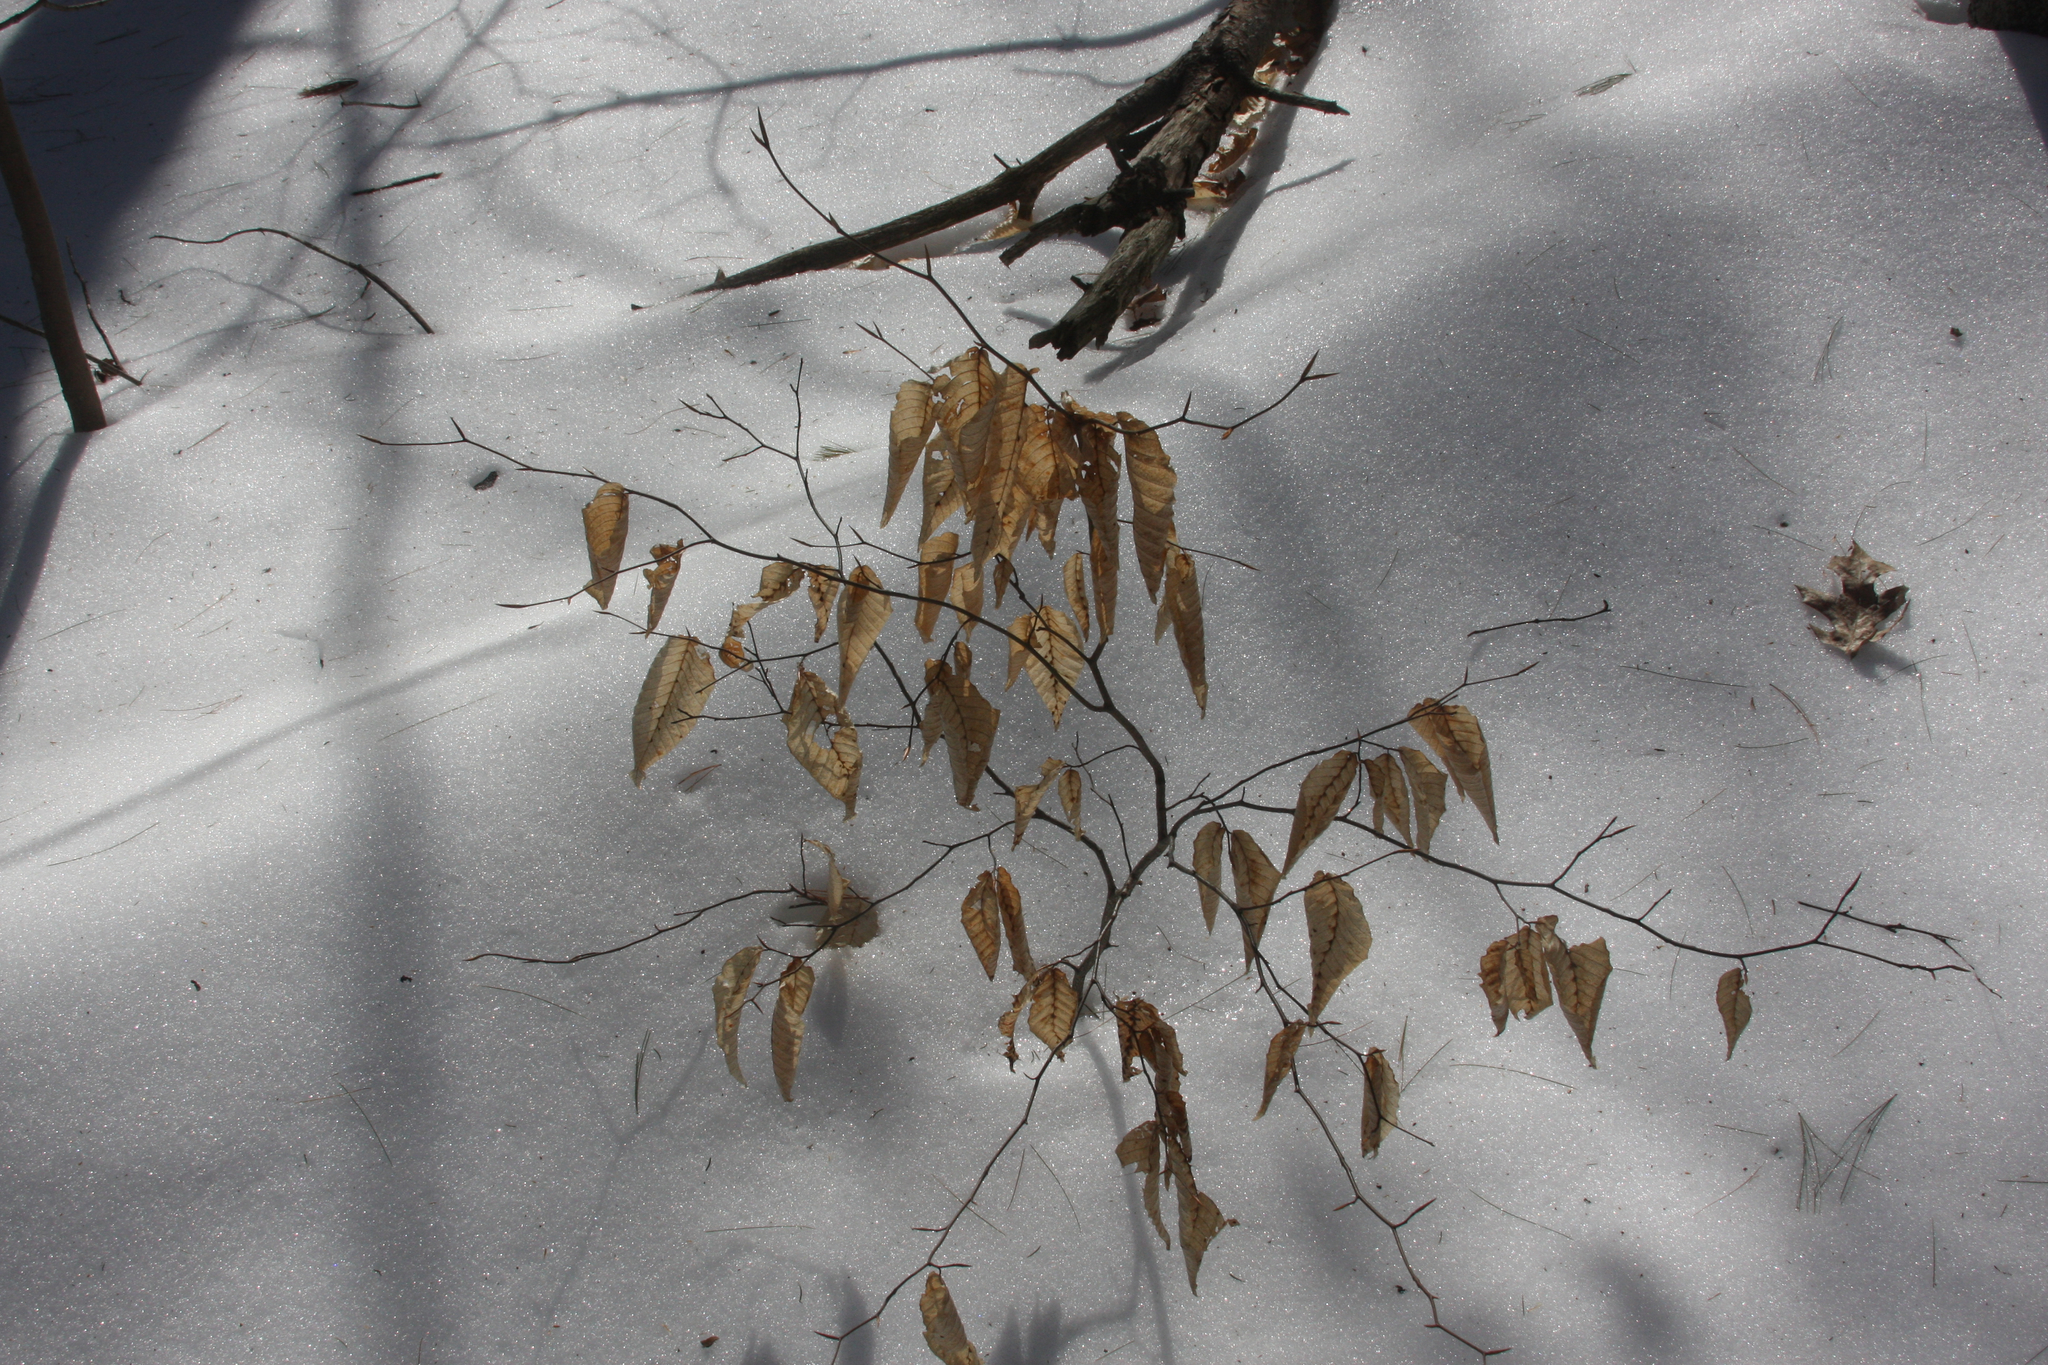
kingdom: Plantae
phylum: Tracheophyta
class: Magnoliopsida
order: Fagales
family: Fagaceae
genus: Fagus
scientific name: Fagus grandifolia
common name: American beech
